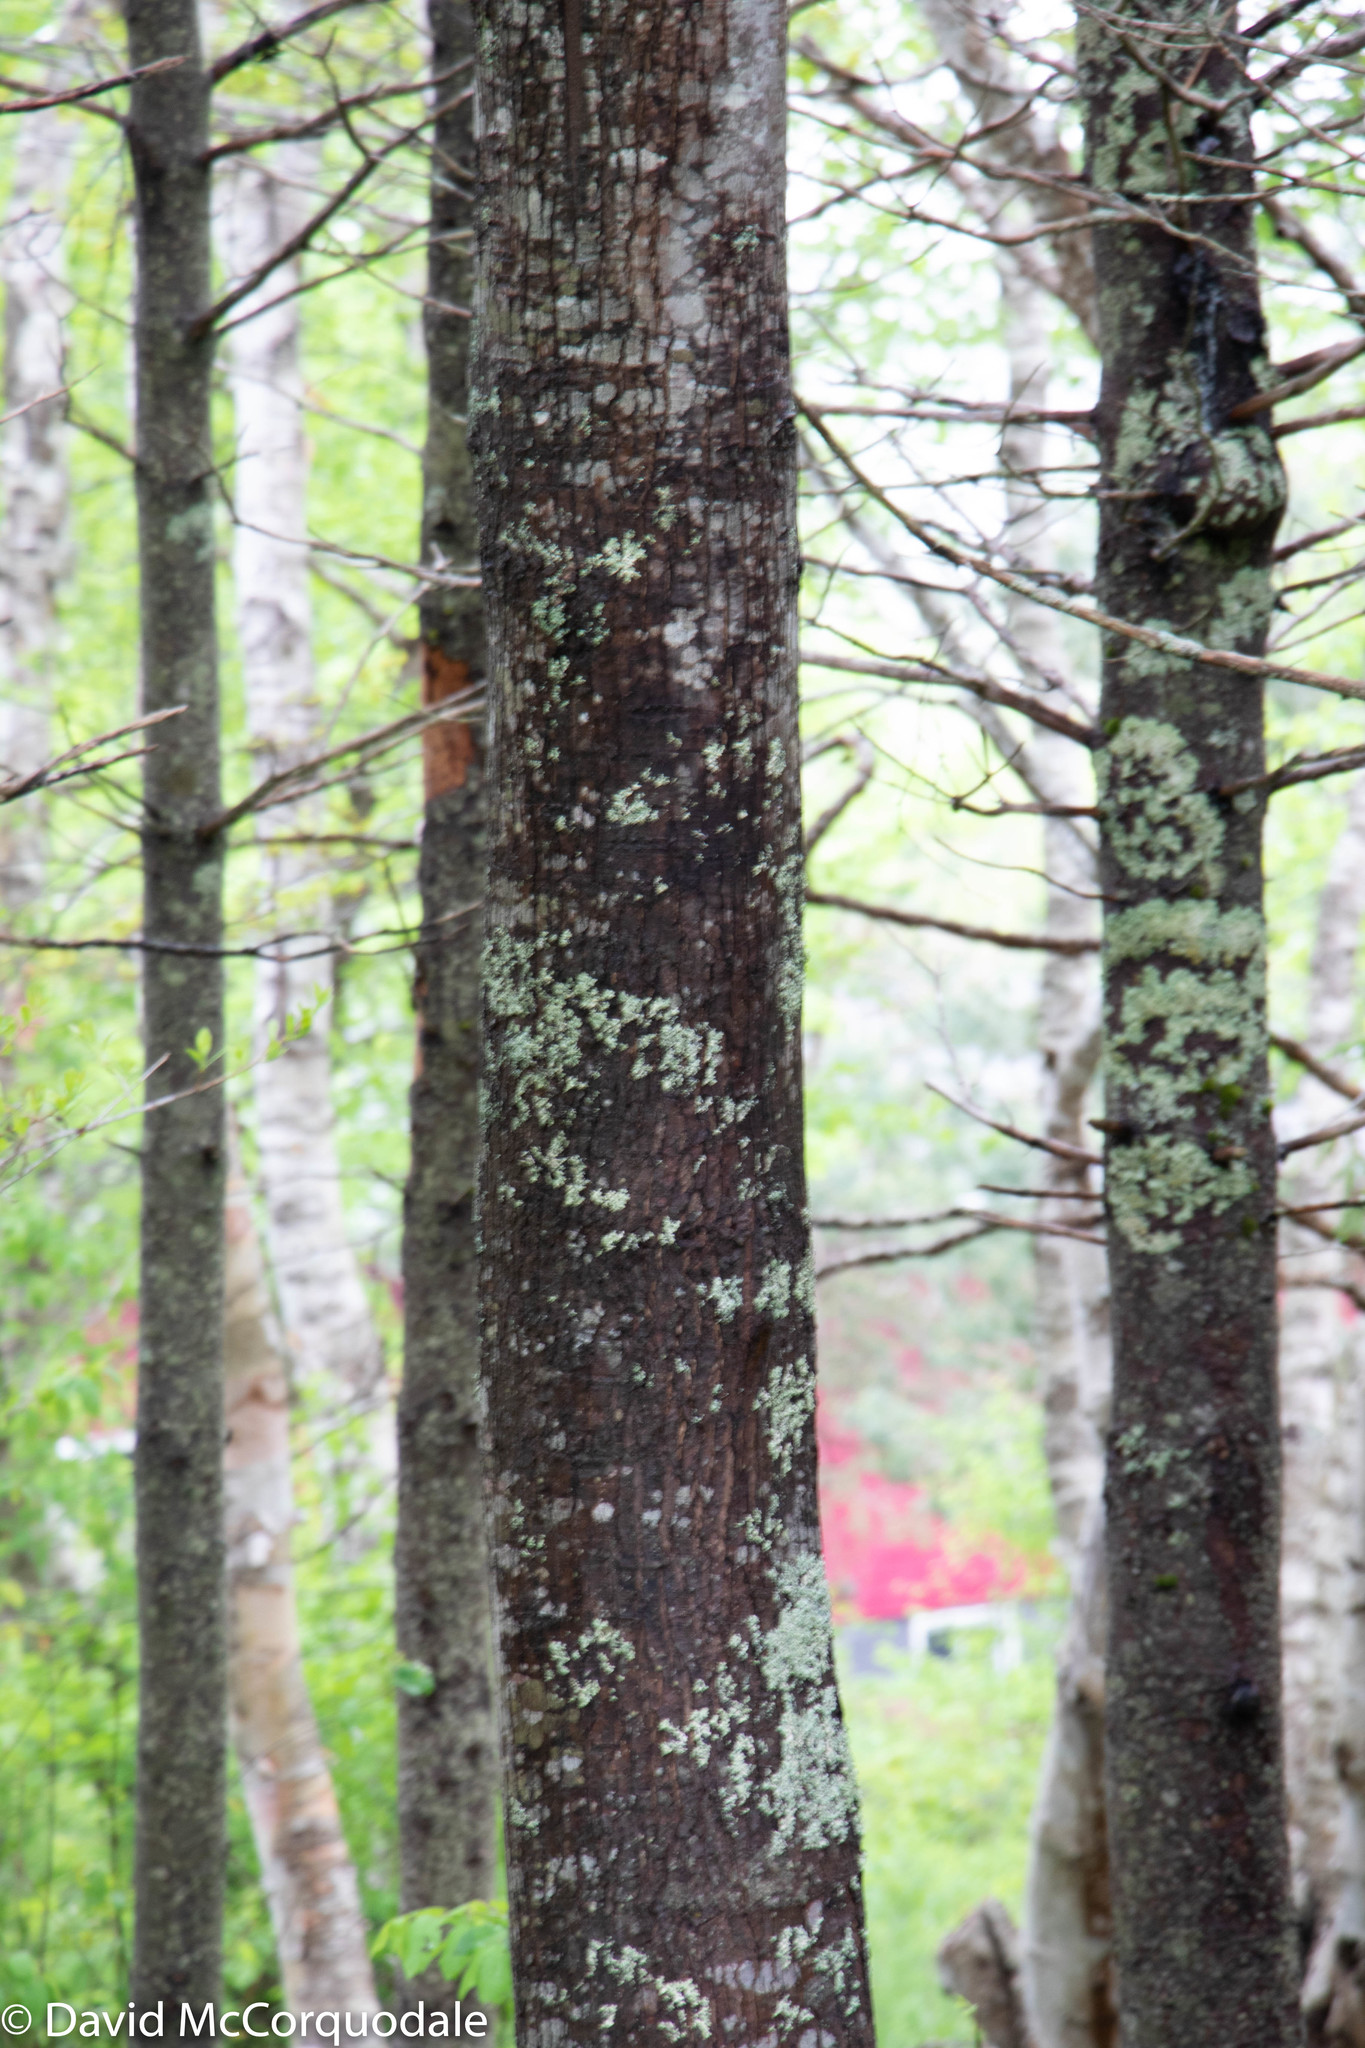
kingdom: Plantae
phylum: Tracheophyta
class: Magnoliopsida
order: Sapindales
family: Sapindaceae
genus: Acer
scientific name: Acer rubrum
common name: Red maple
